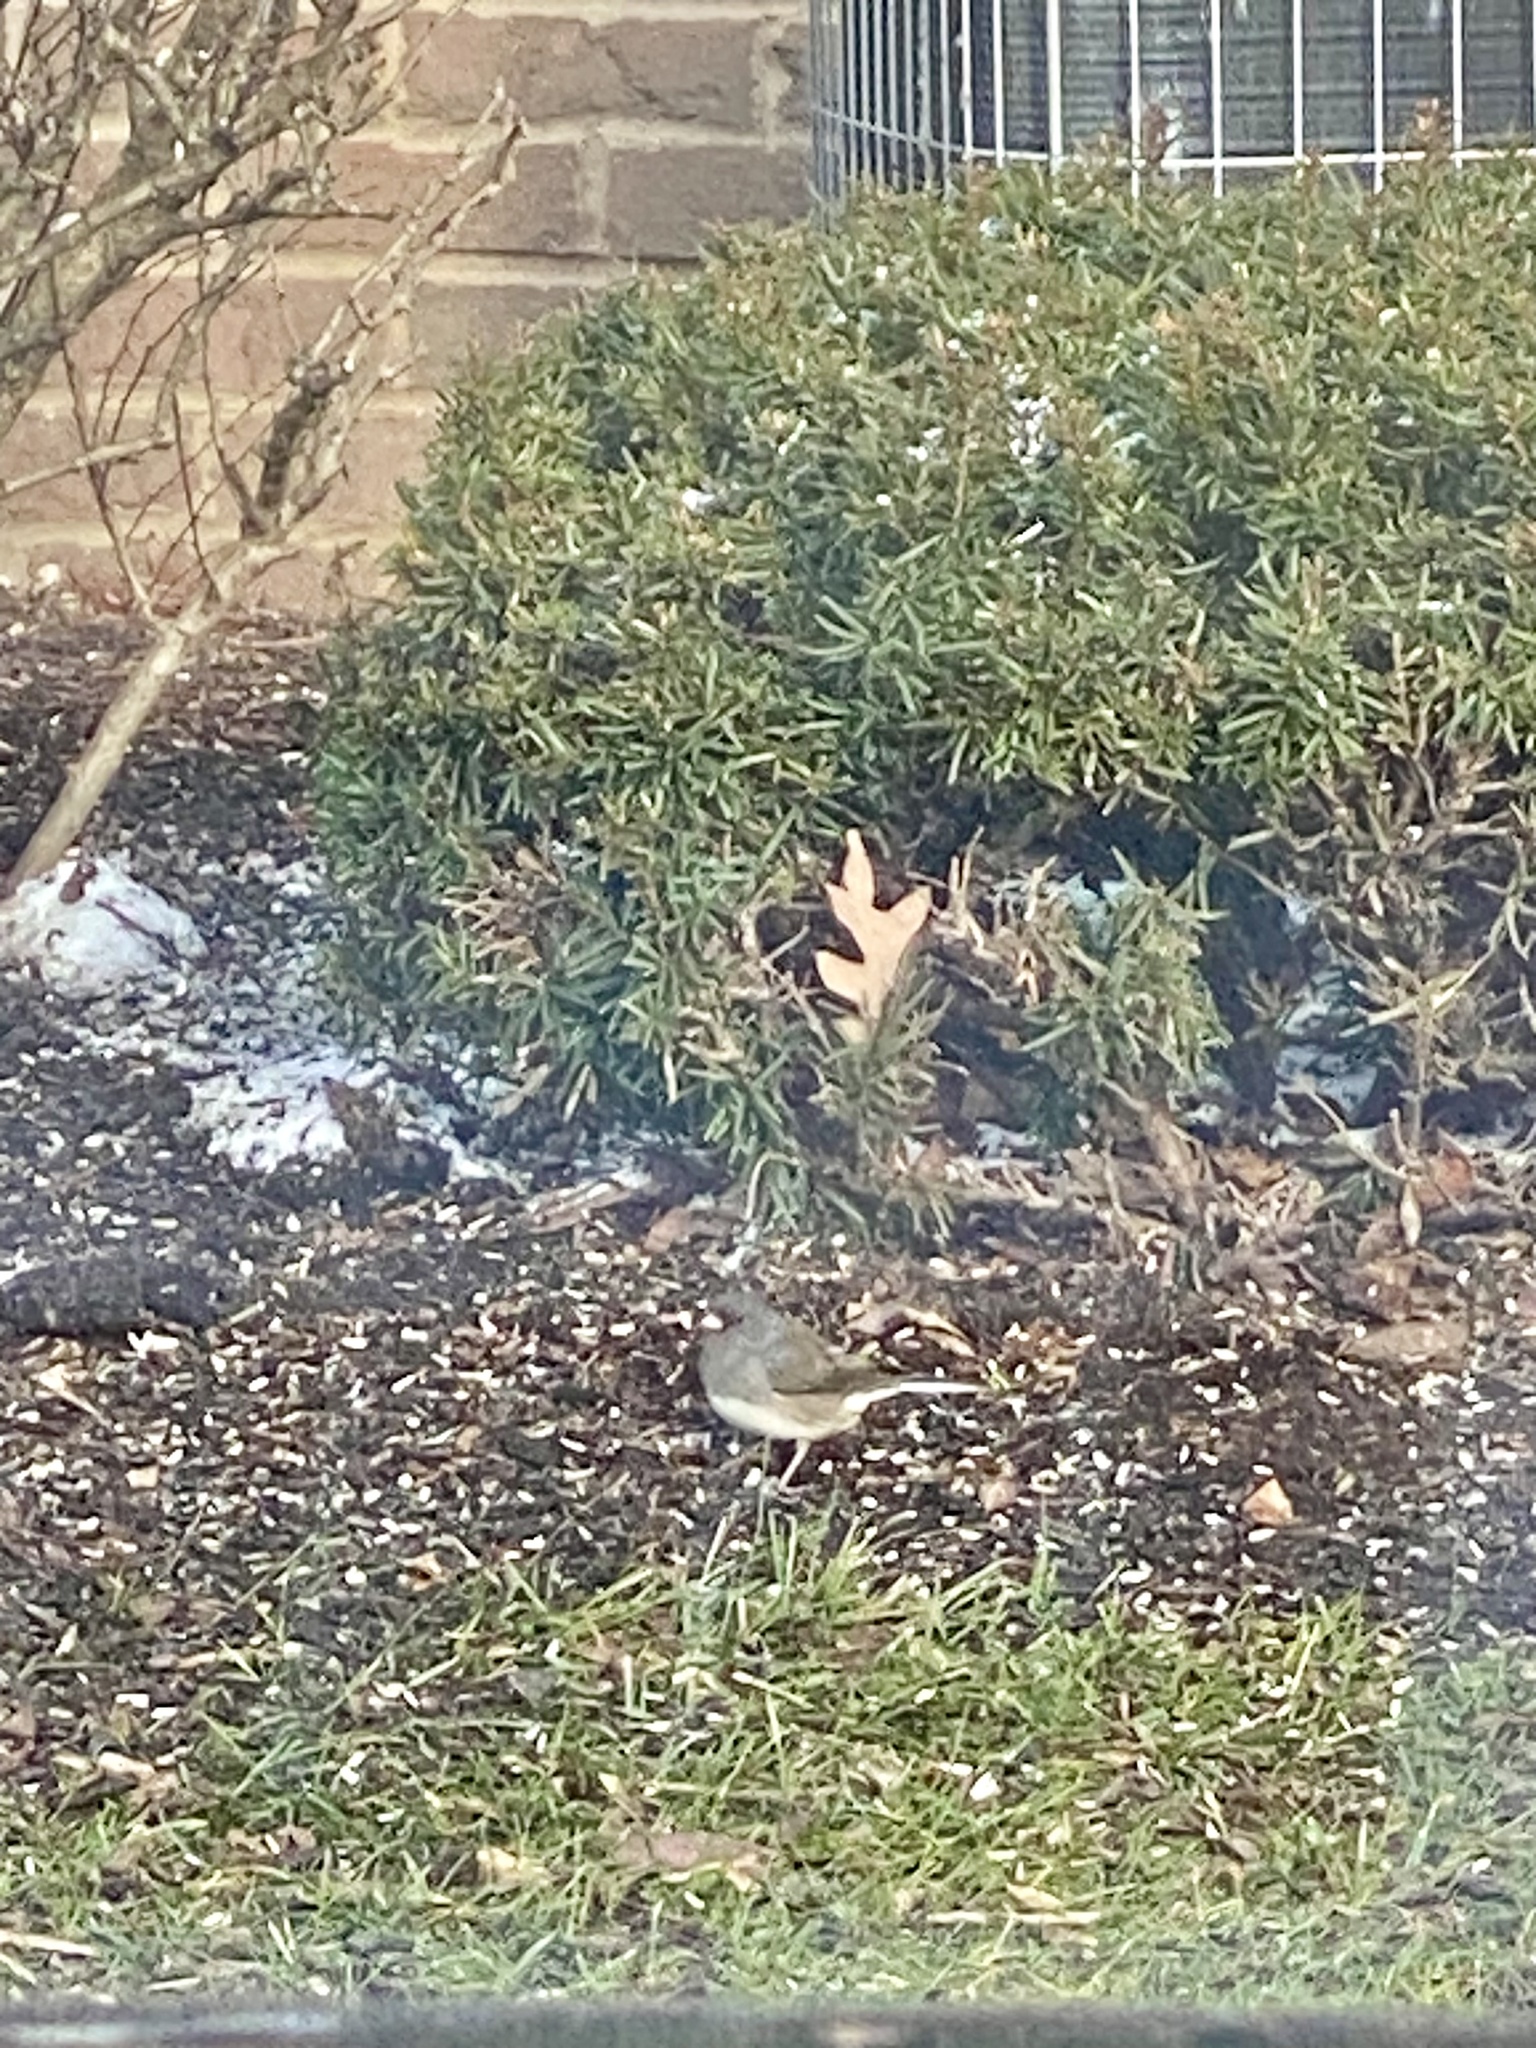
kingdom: Animalia
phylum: Chordata
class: Aves
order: Passeriformes
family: Passerellidae
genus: Junco
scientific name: Junco hyemalis
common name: Dark-eyed junco
